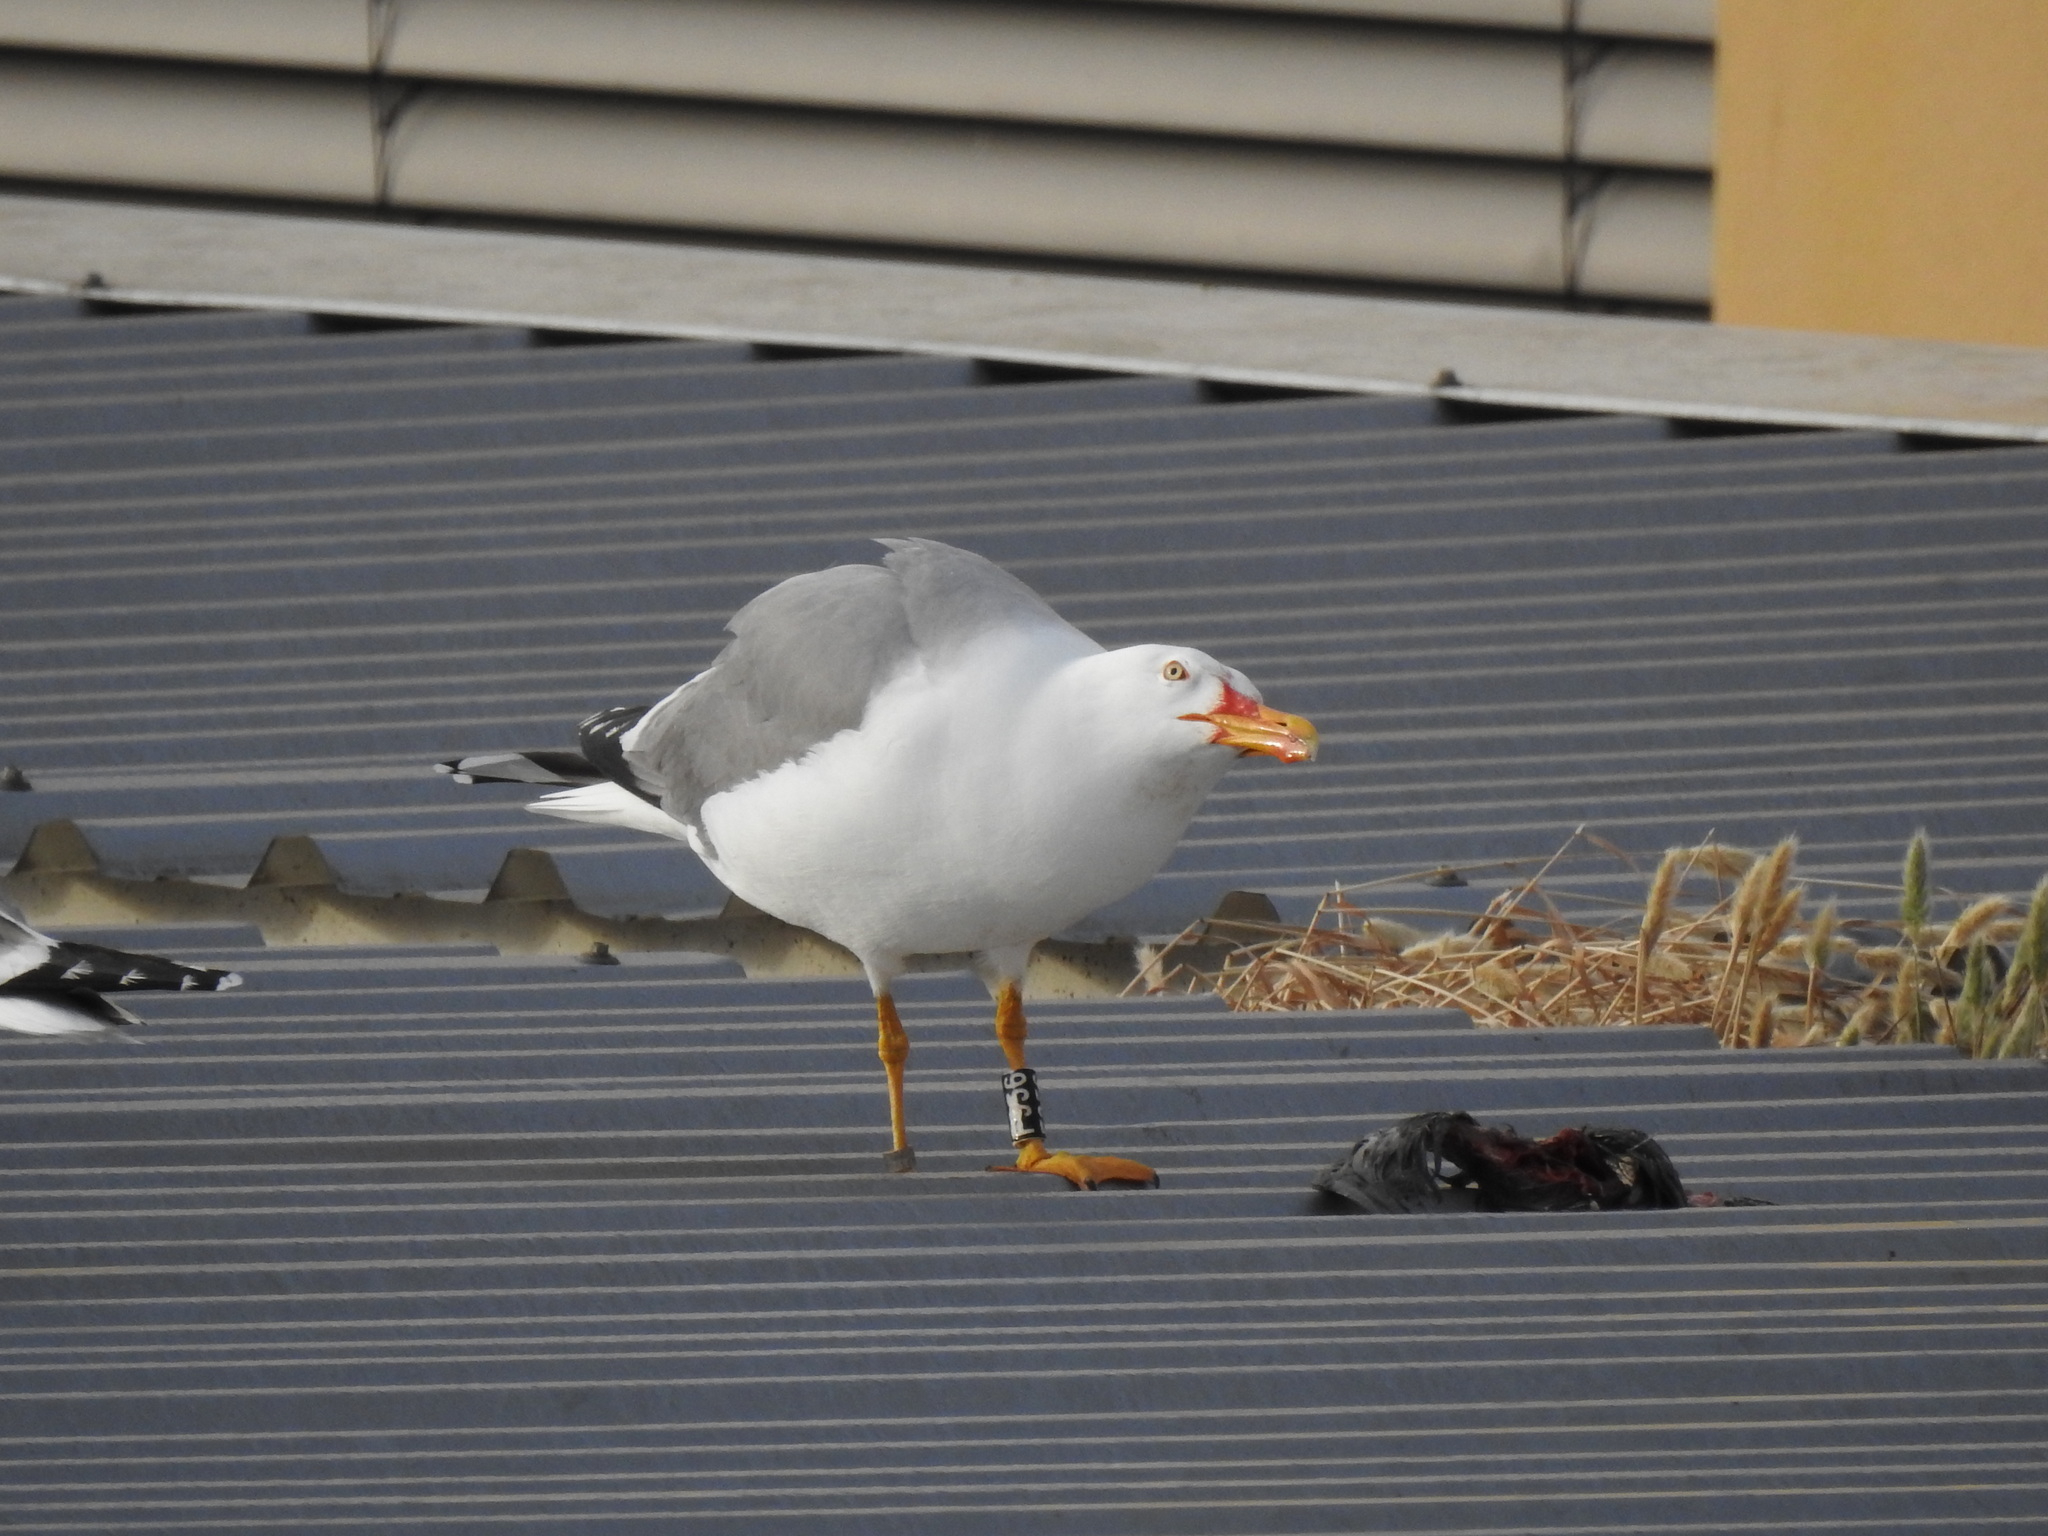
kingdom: Animalia
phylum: Chordata
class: Aves
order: Charadriiformes
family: Laridae
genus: Larus
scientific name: Larus michahellis
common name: Yellow-legged gull
